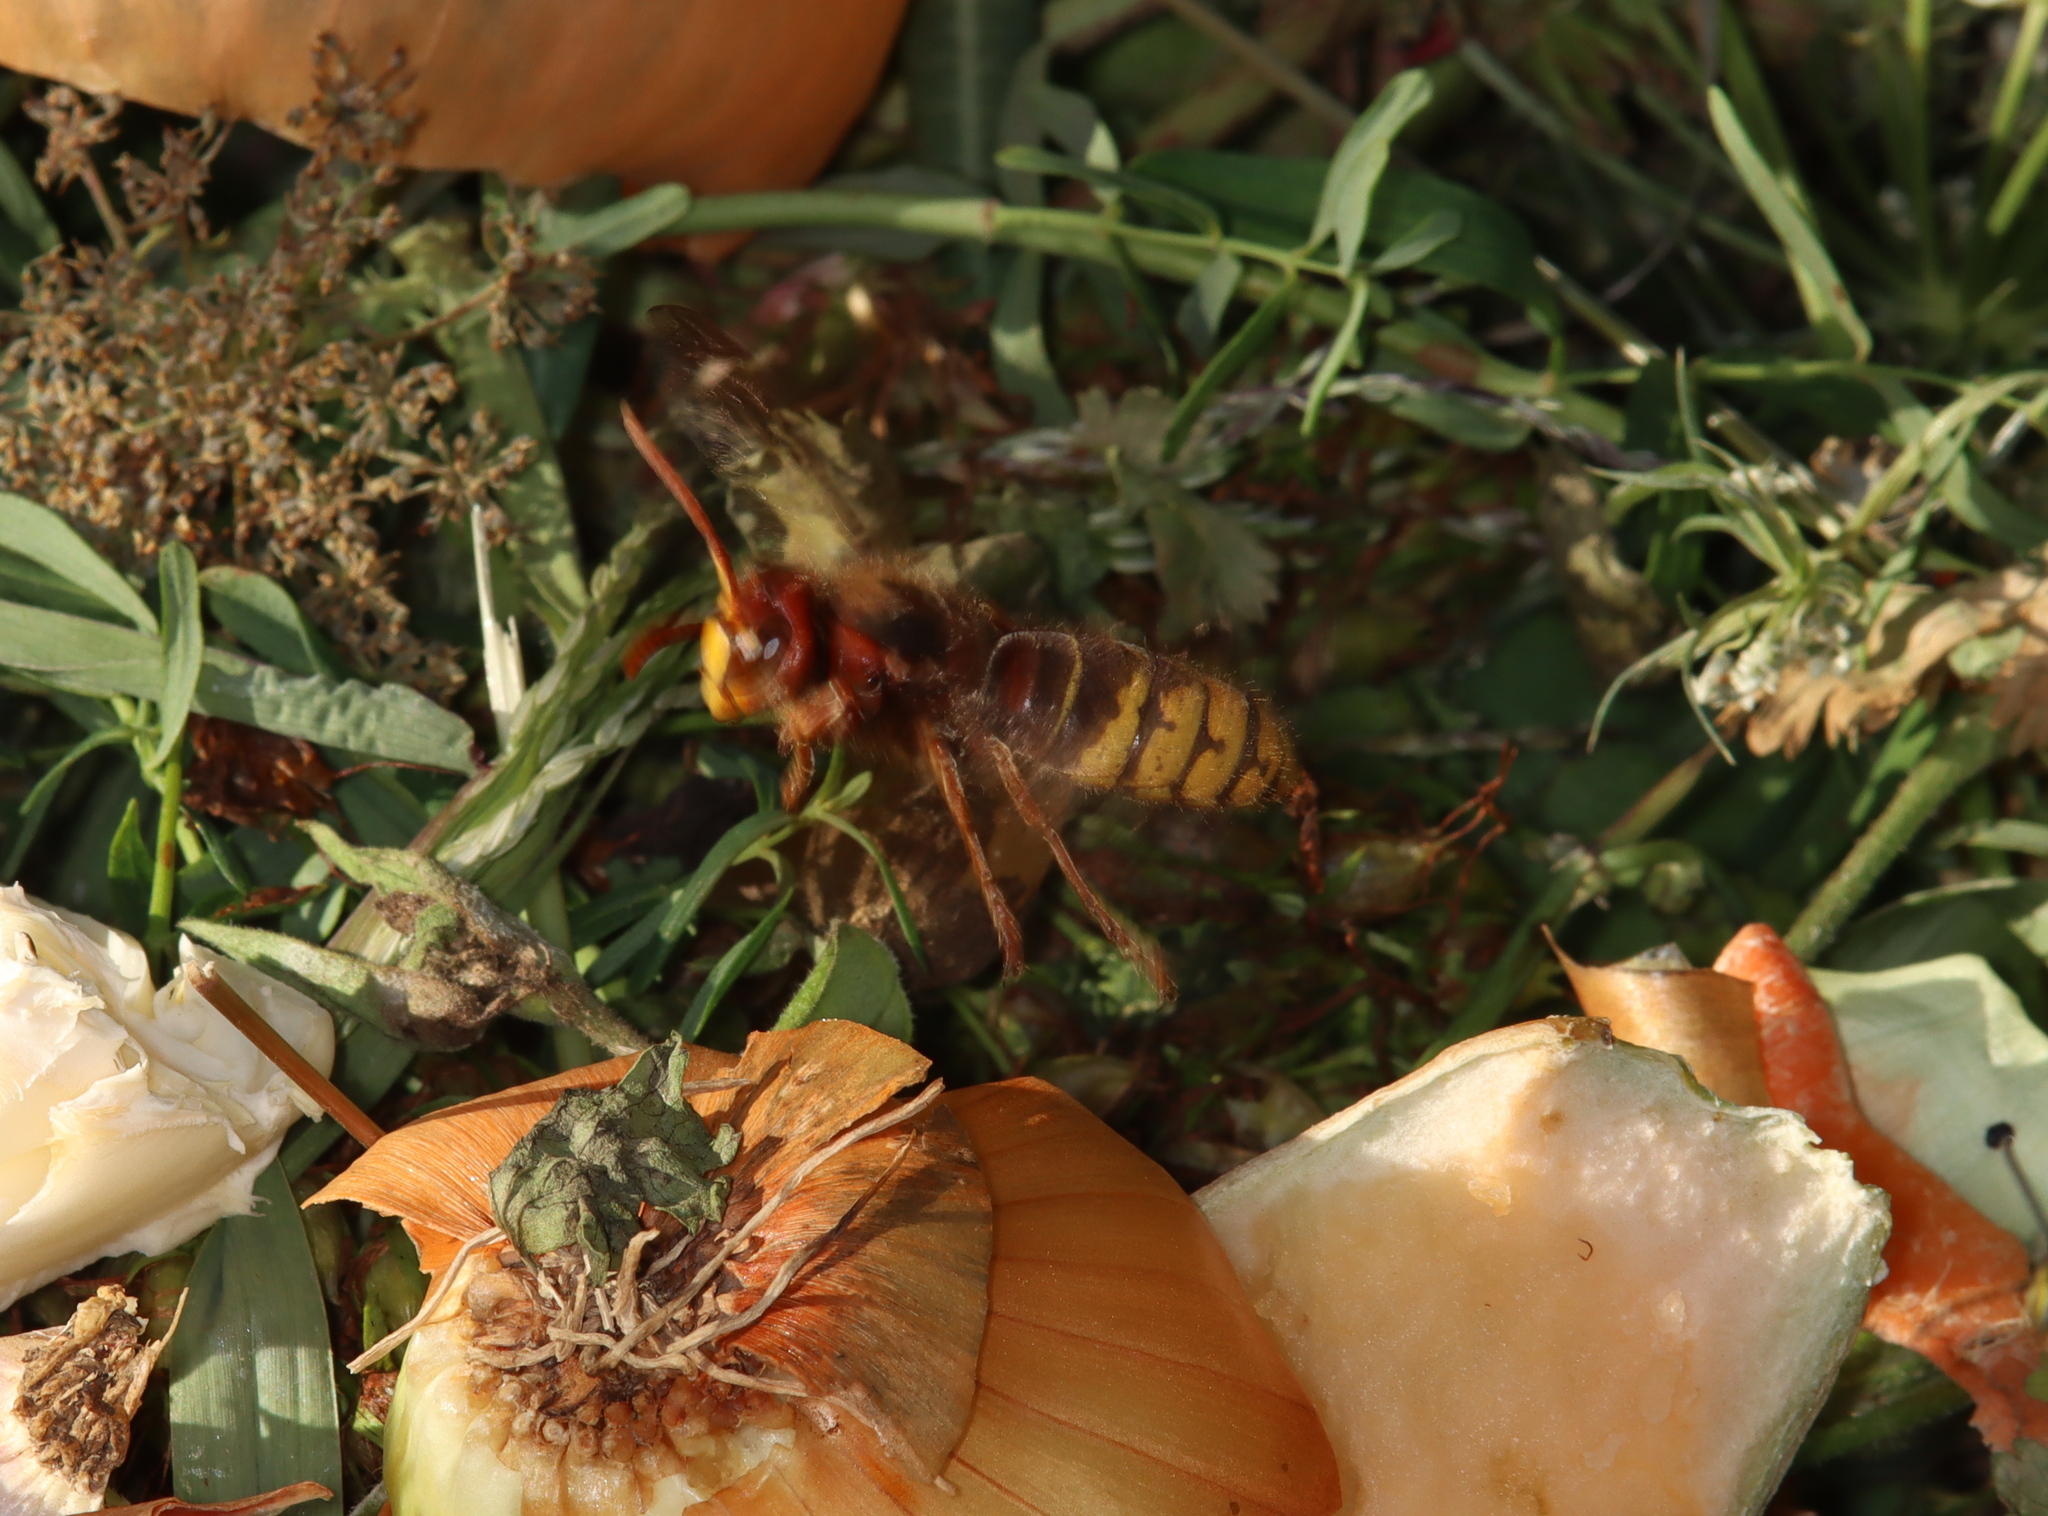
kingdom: Animalia
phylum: Arthropoda
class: Insecta
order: Hymenoptera
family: Vespidae
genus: Vespa
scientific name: Vespa crabro
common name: Hornet
